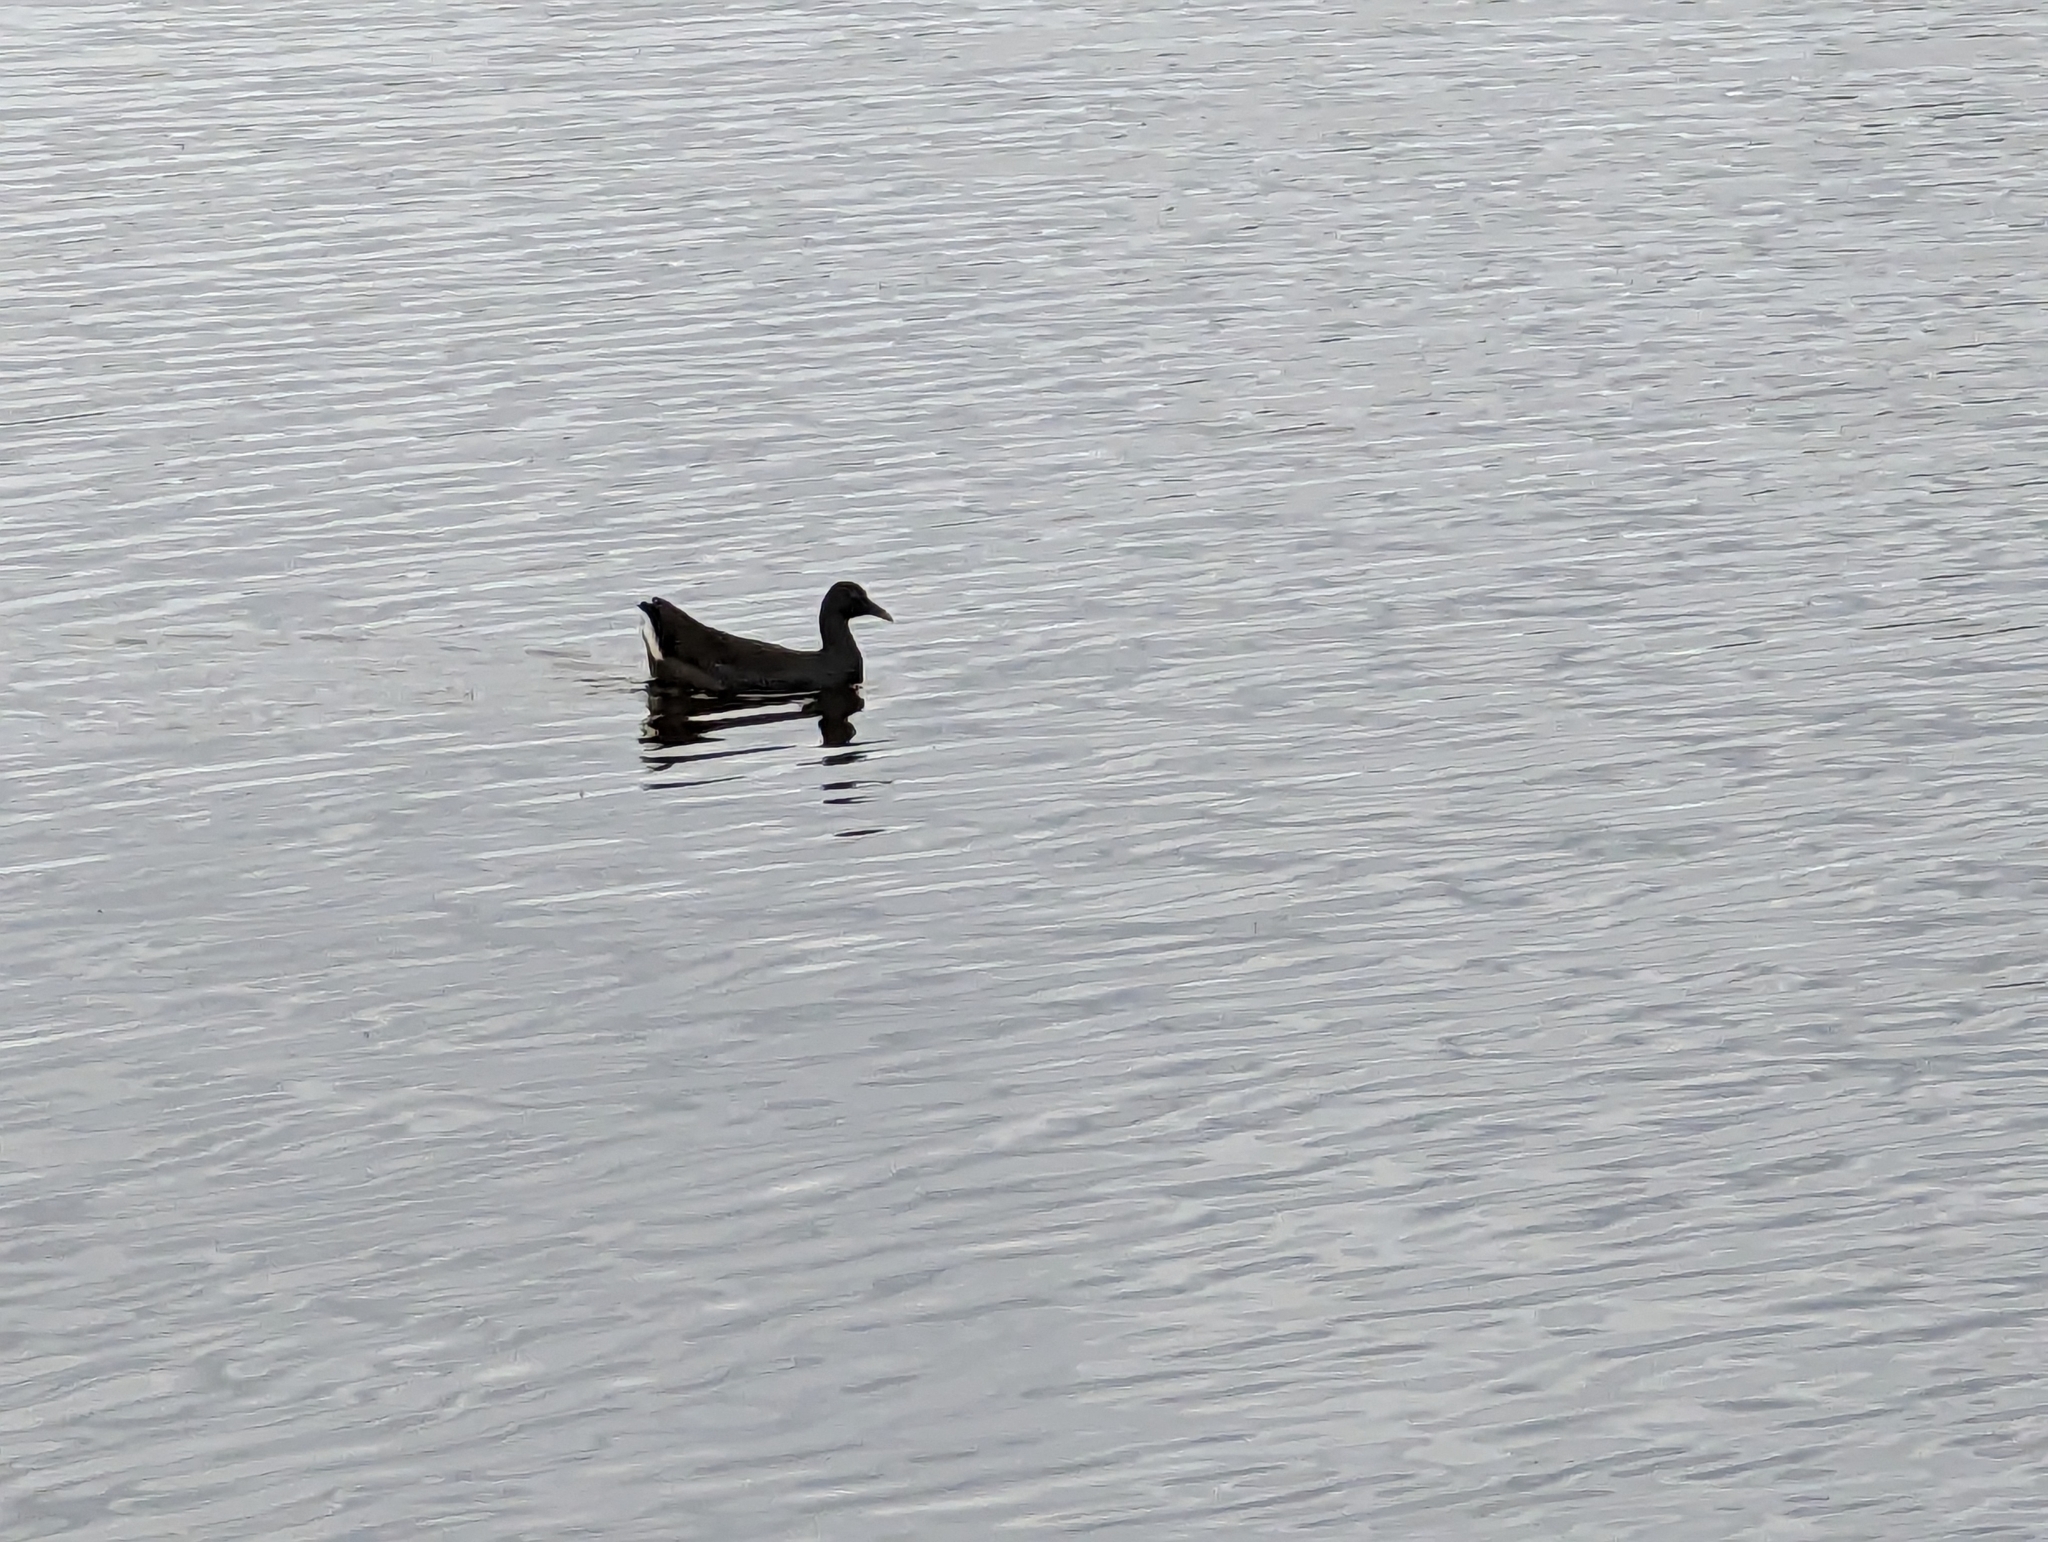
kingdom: Animalia
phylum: Chordata
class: Aves
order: Gruiformes
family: Rallidae
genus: Gallinula
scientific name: Gallinula tenebrosa
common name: Dusky moorhen
